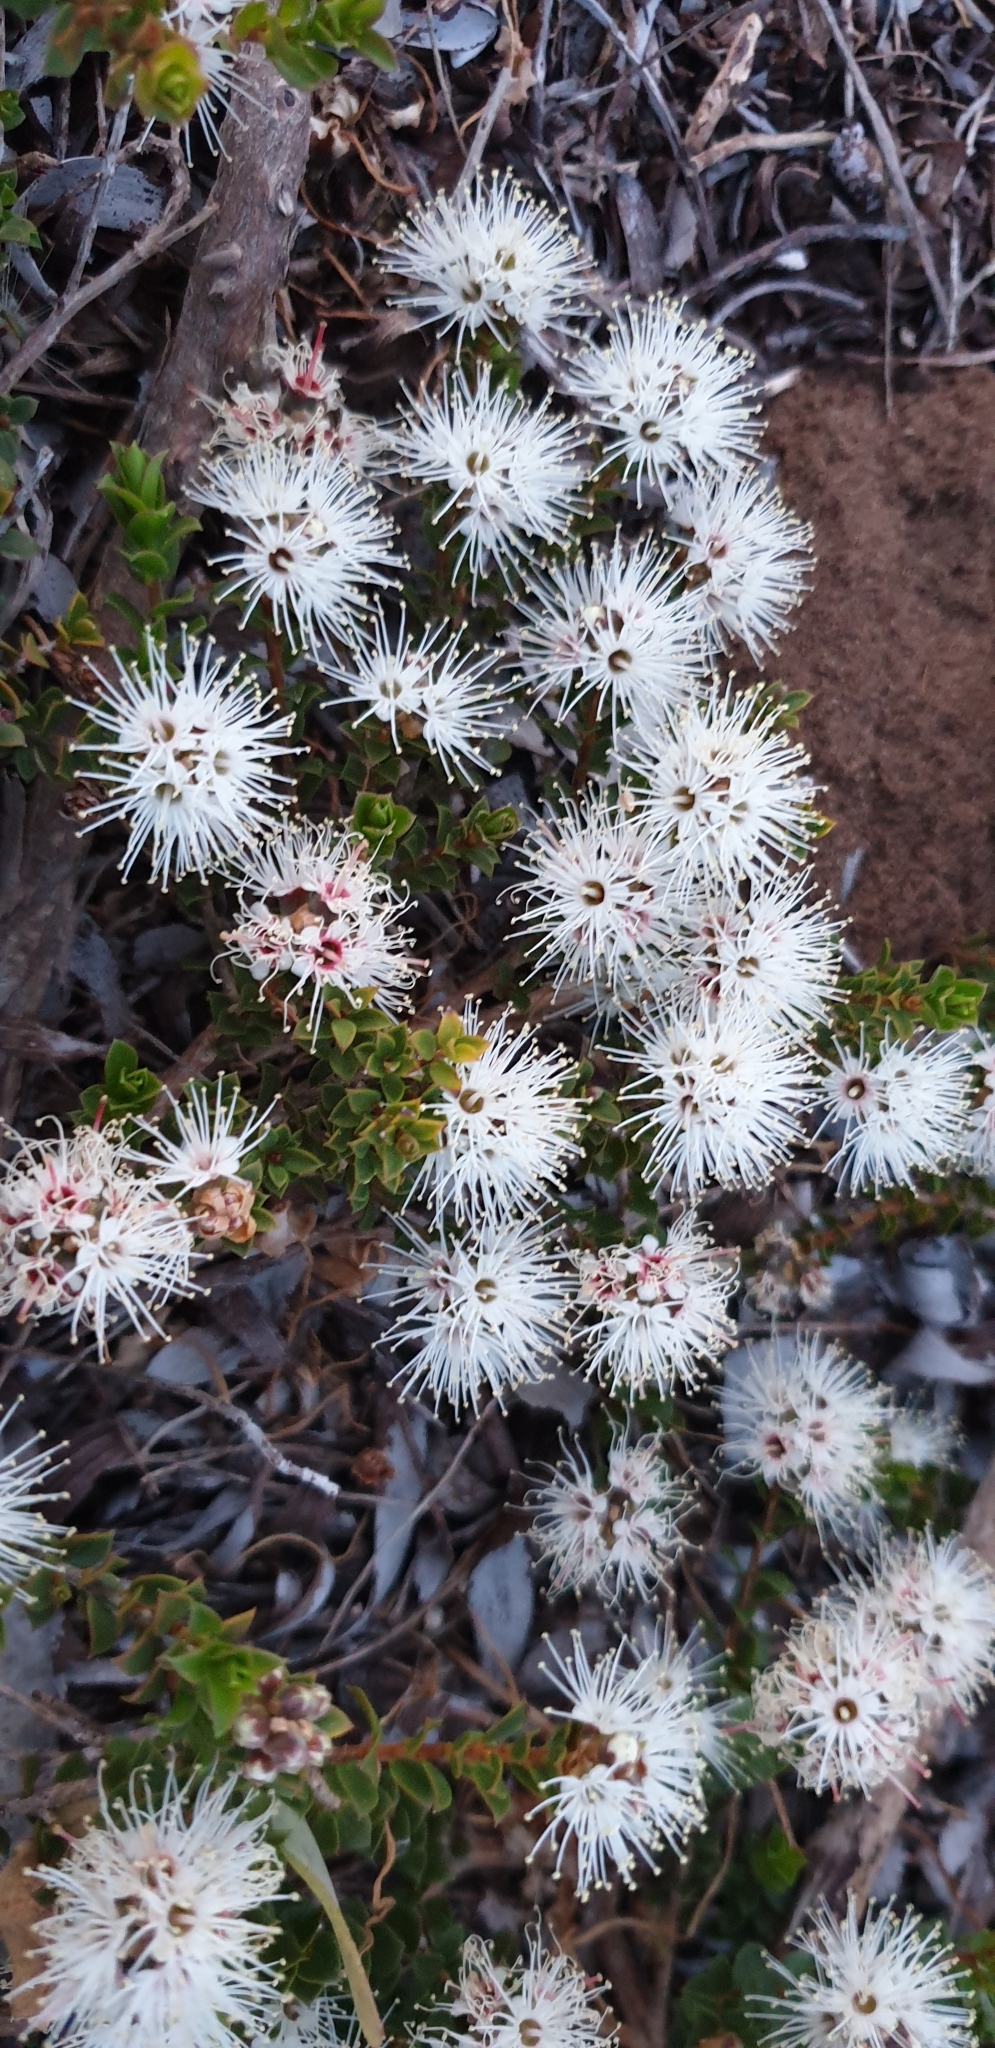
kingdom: Plantae
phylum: Tracheophyta
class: Magnoliopsida
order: Myrtales
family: Myrtaceae
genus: Kunzea
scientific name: Kunzea pomifera
